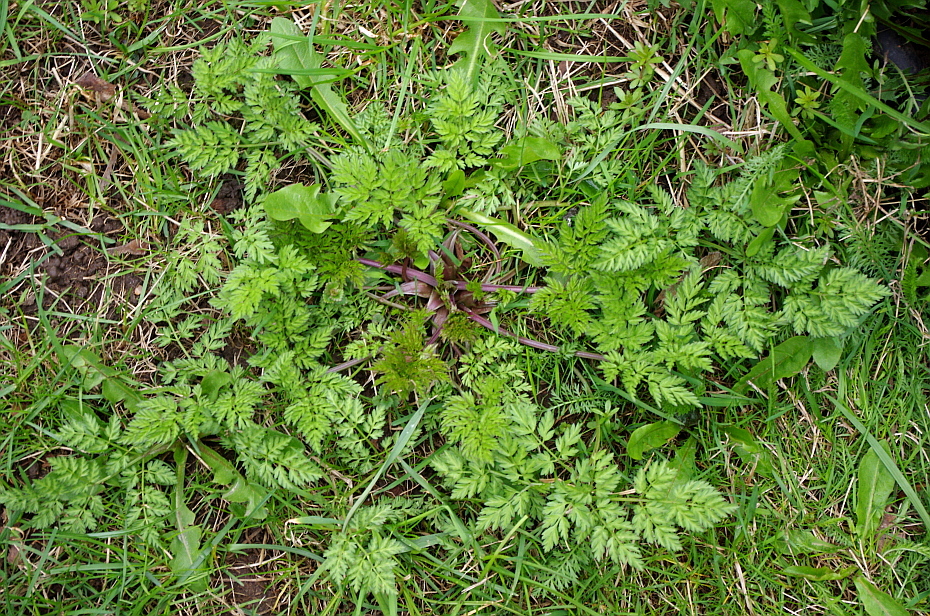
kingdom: Plantae
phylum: Tracheophyta
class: Magnoliopsida
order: Apiales
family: Apiaceae
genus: Anthriscus
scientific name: Anthriscus sylvestris
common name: Cow parsley
